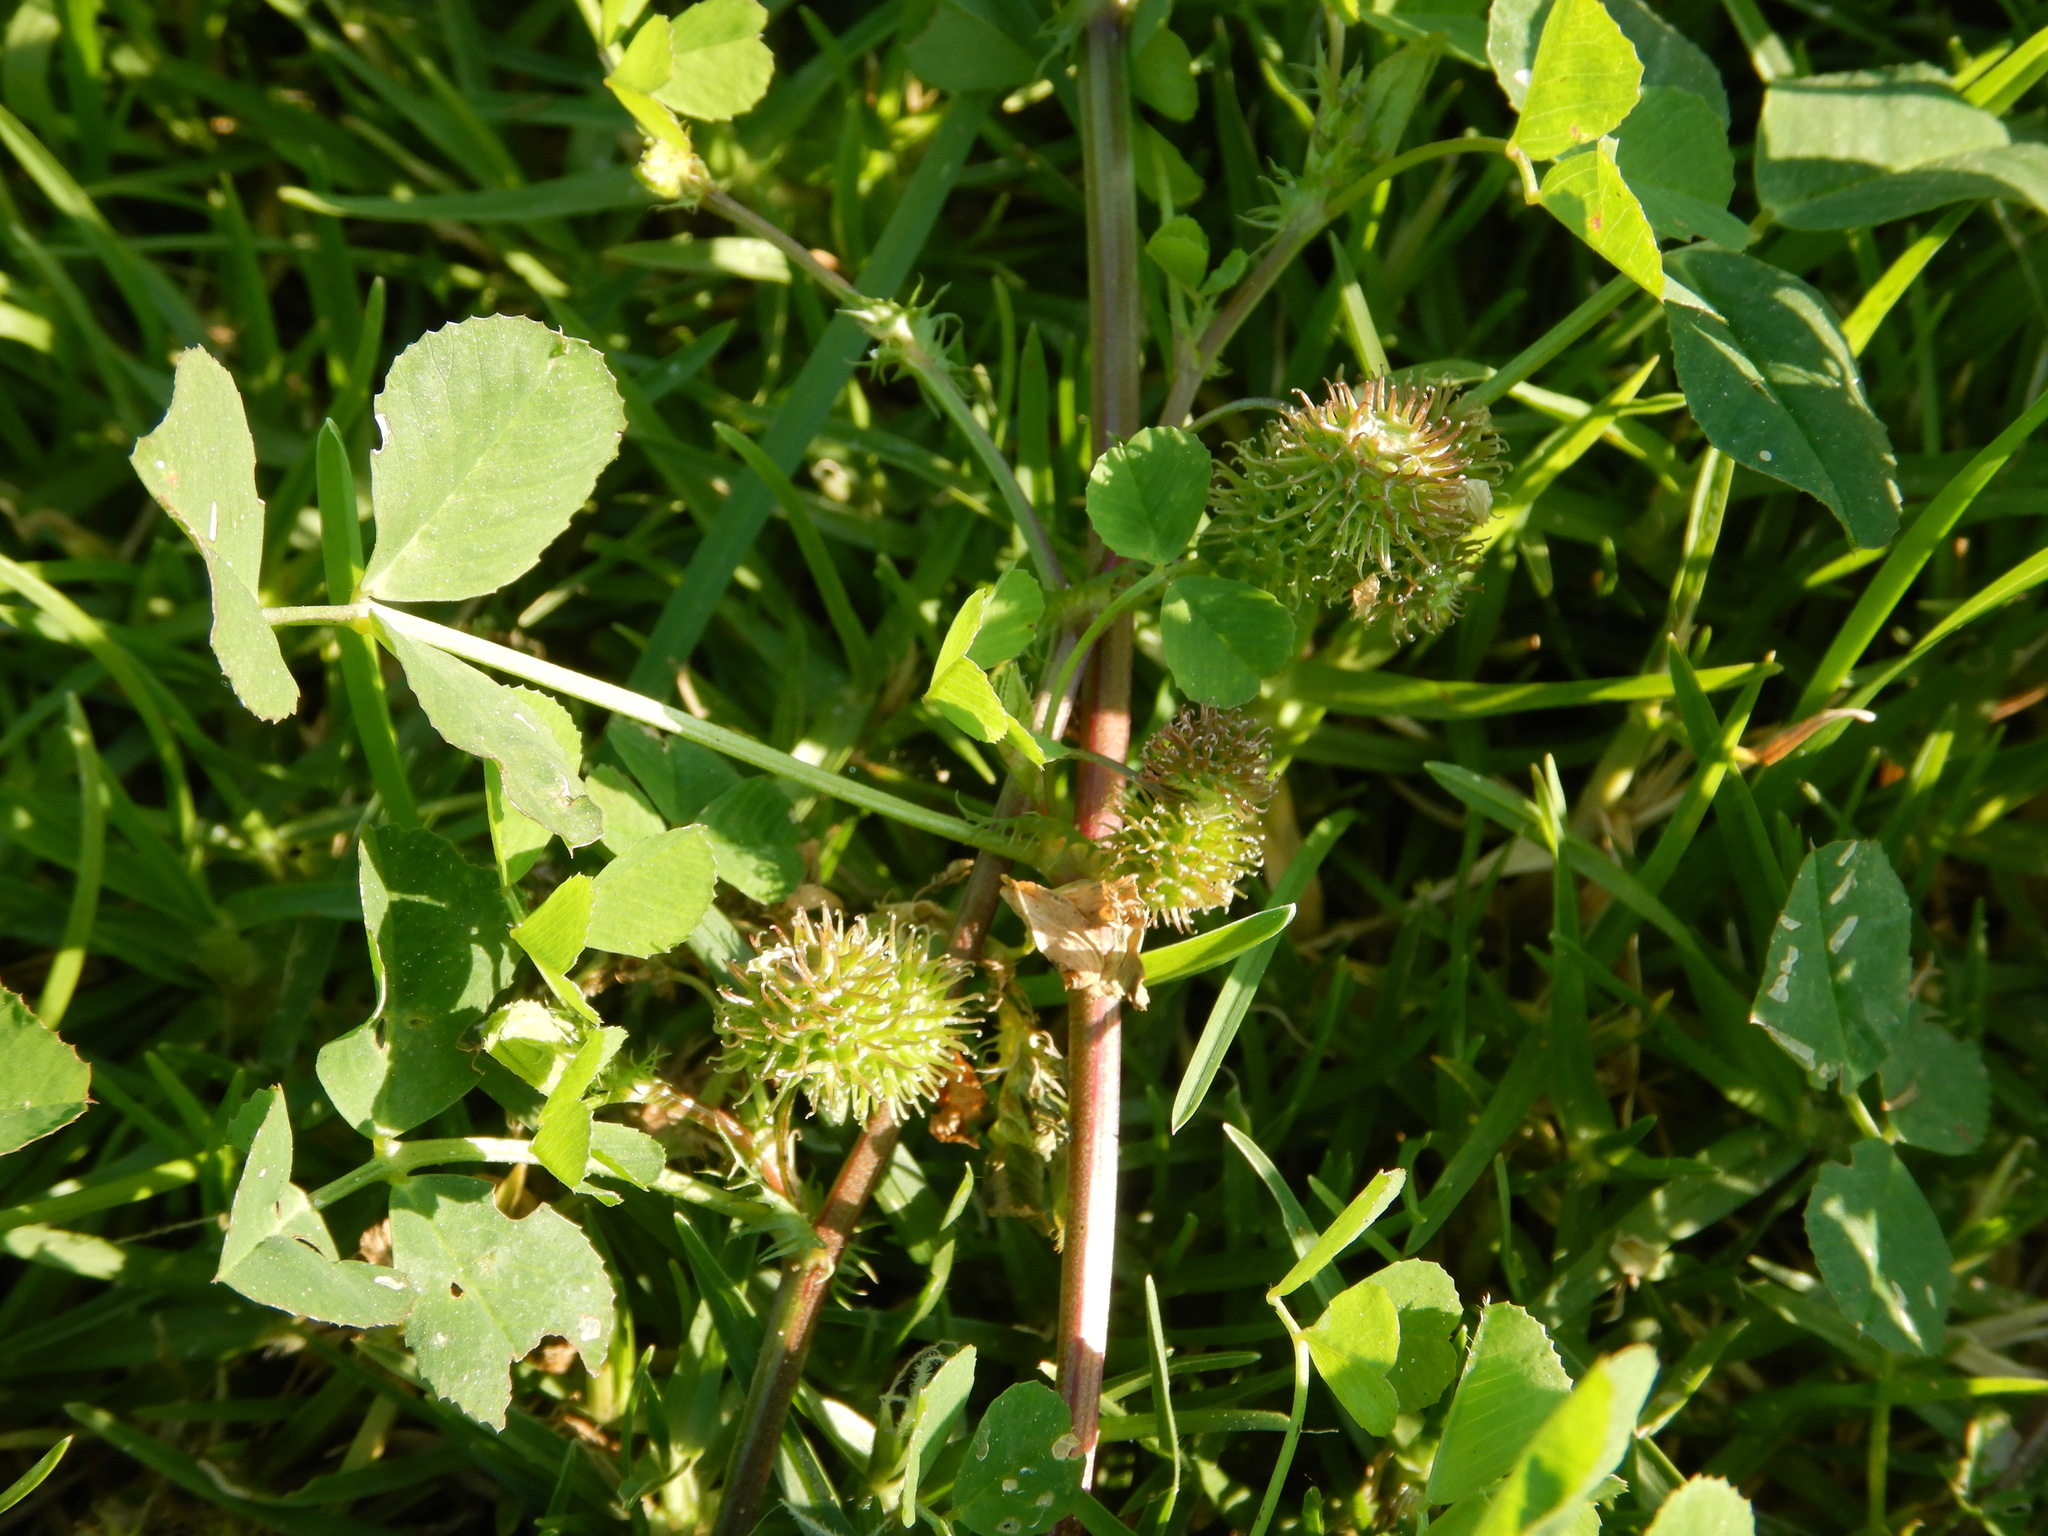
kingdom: Plantae
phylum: Tracheophyta
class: Magnoliopsida
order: Fabales
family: Fabaceae
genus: Medicago
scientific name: Medicago polymorpha
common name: Burclover
